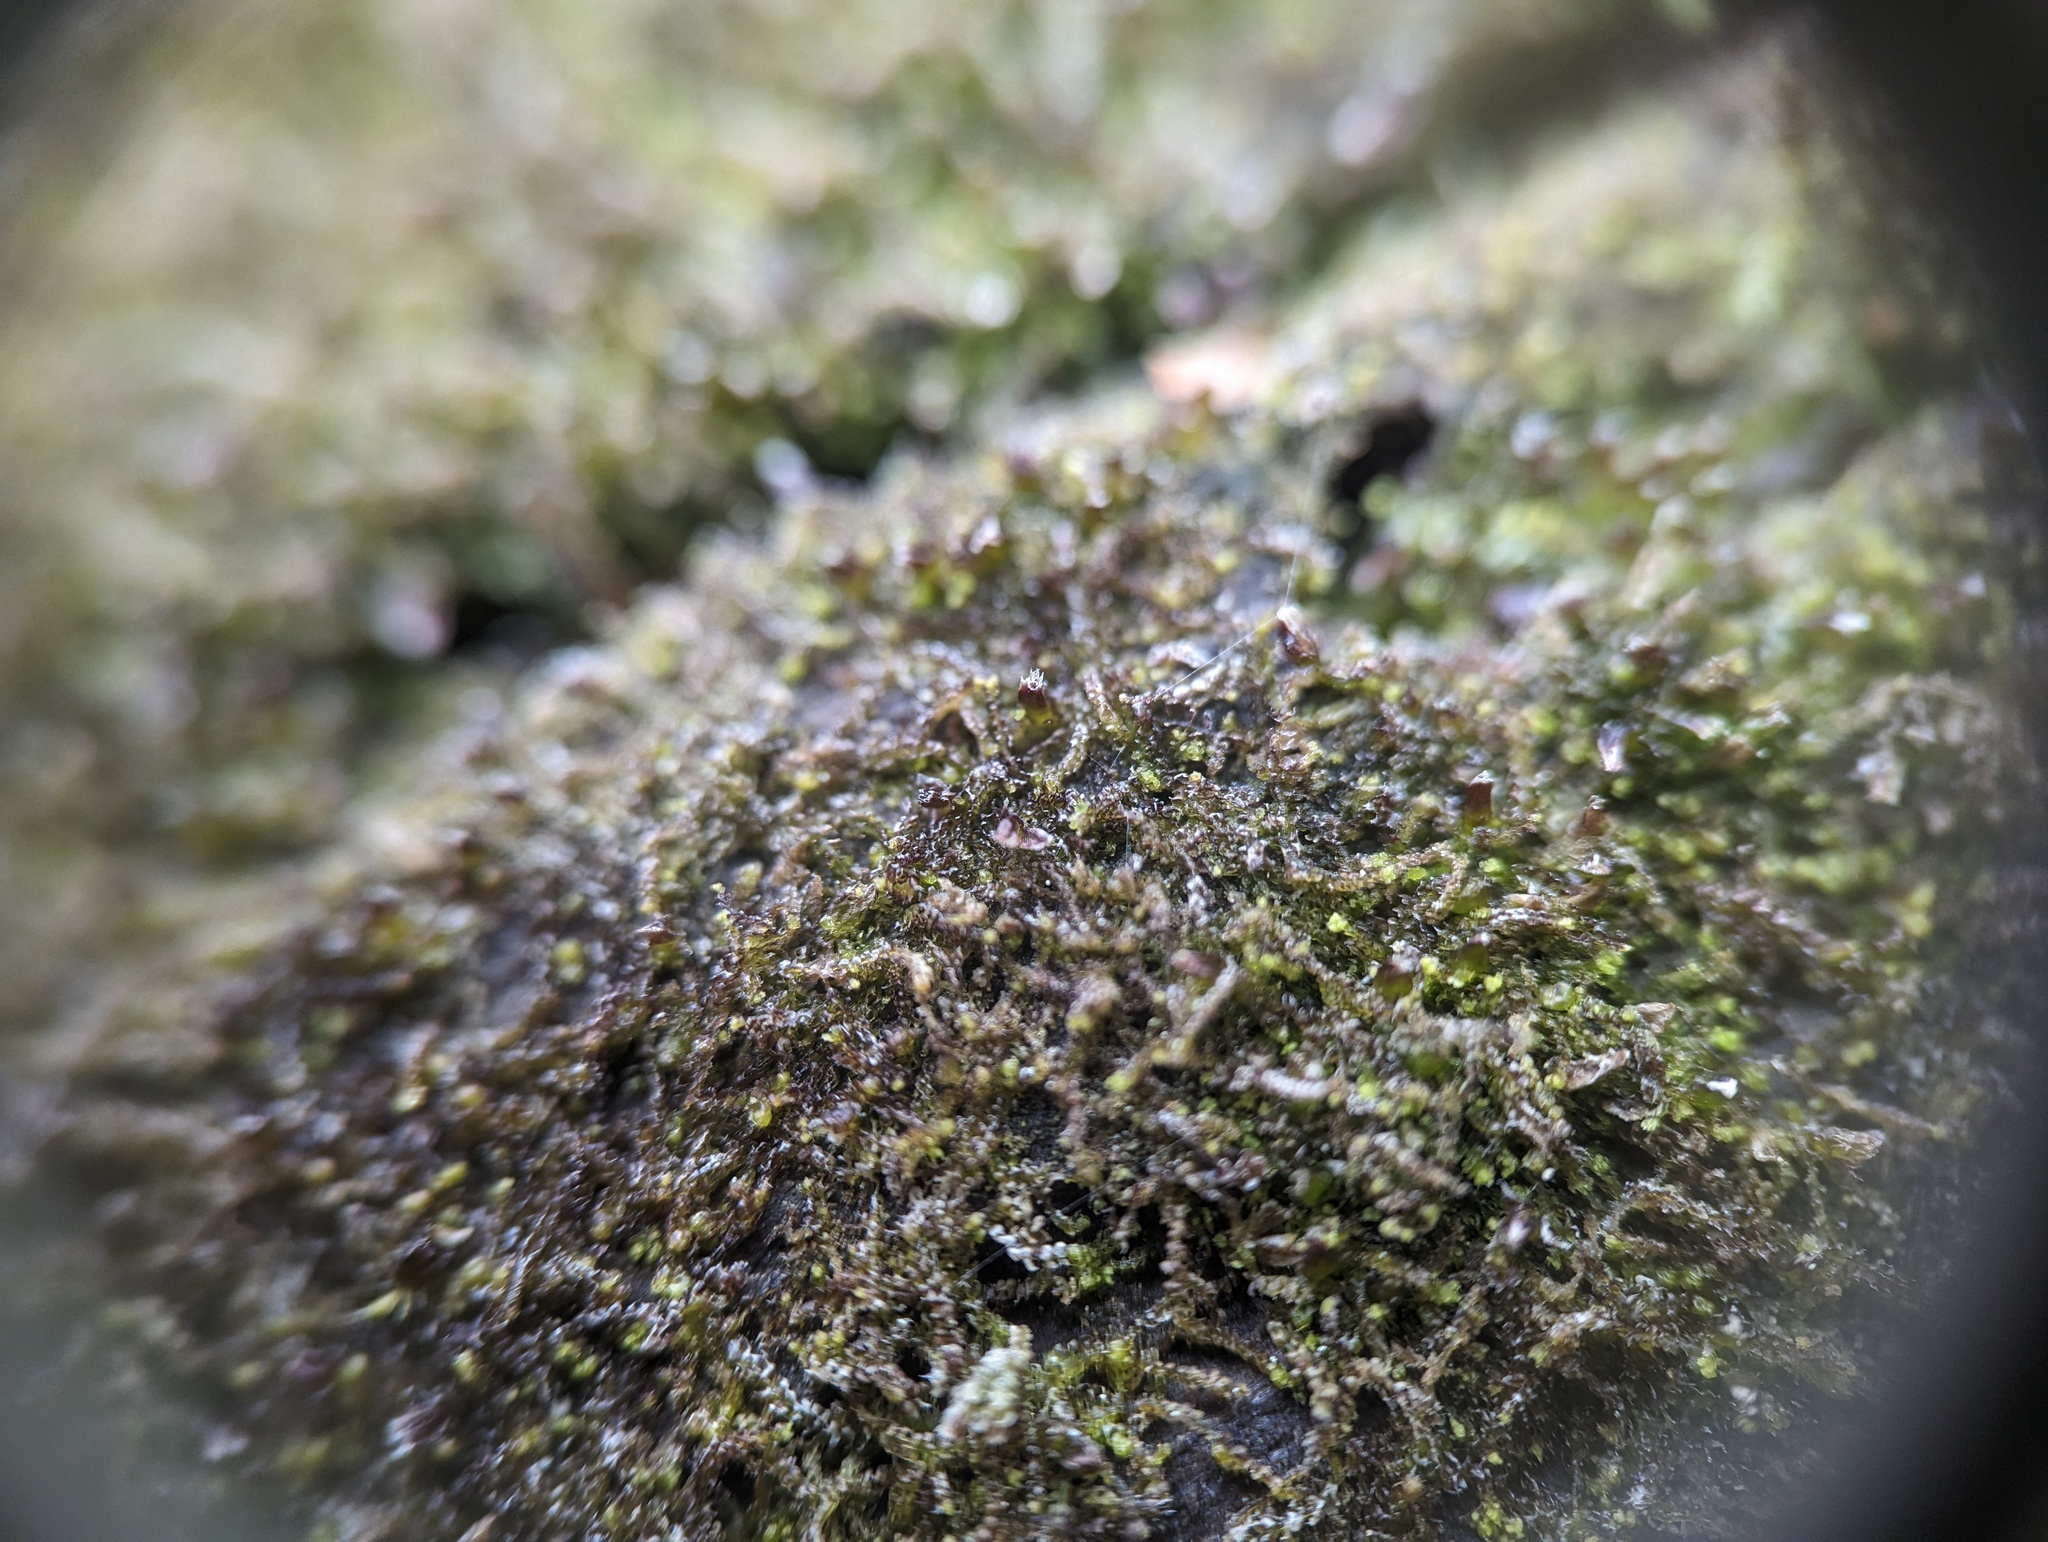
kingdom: Plantae
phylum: Marchantiophyta
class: Jungermanniopsida
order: Jungermanniales
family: Cephaloziaceae
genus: Nowellia
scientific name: Nowellia curvifolia
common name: Wood rustwort
